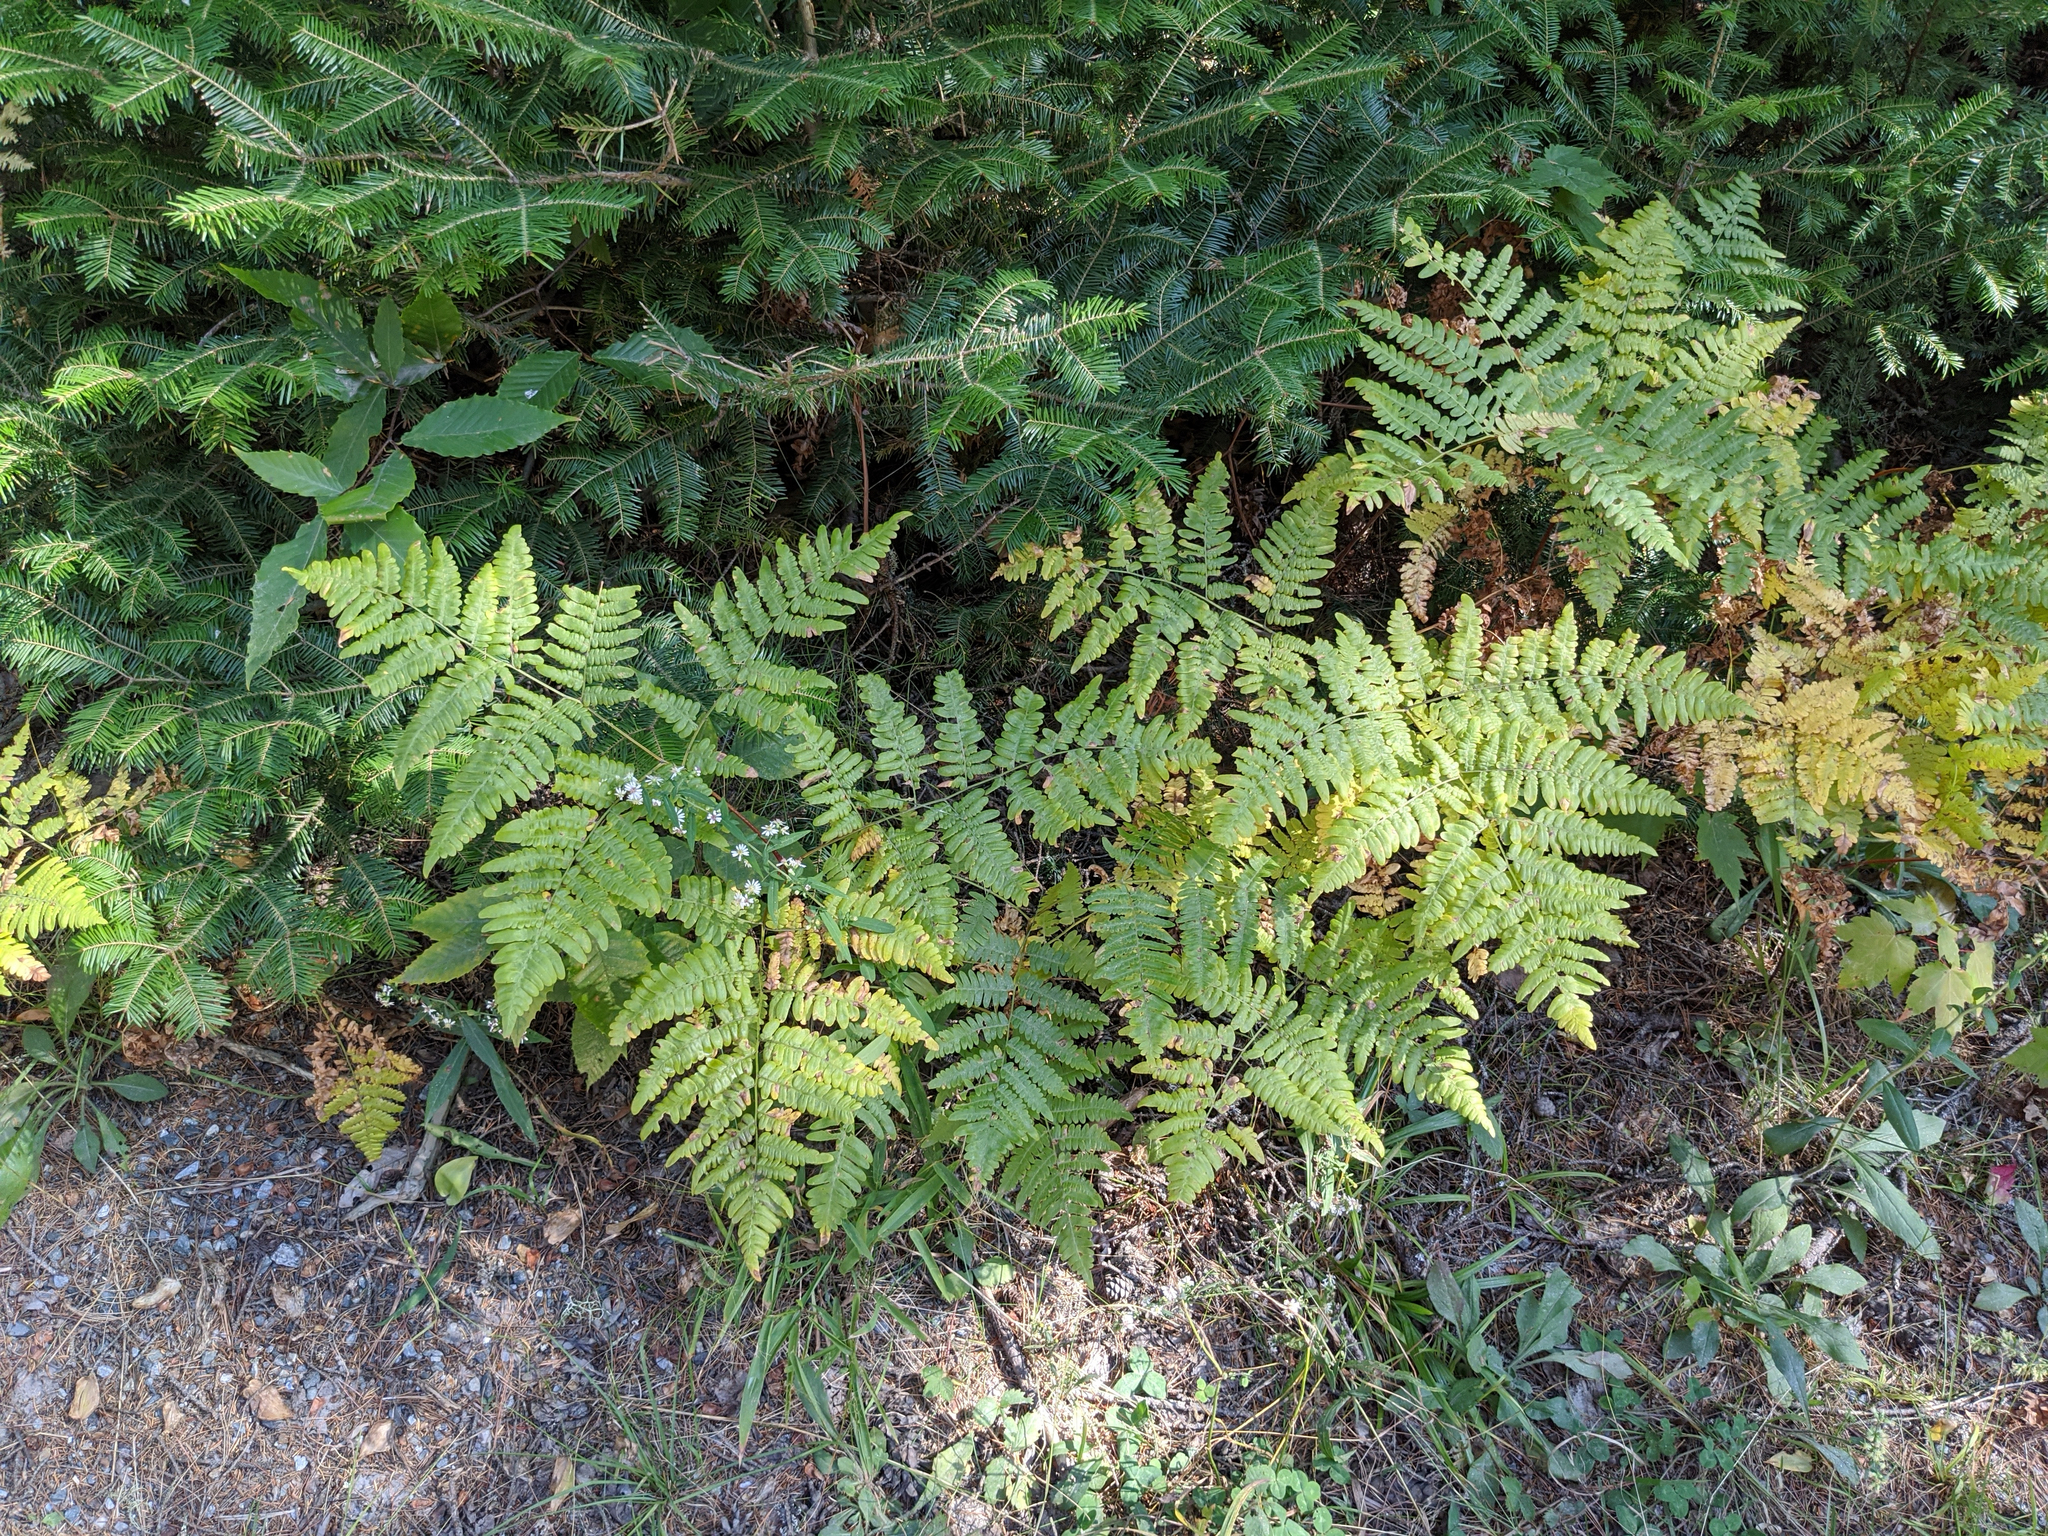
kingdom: Plantae
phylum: Tracheophyta
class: Pinopsida
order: Pinales
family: Pinaceae
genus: Abies
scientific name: Abies balsamea
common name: Balsam fir
